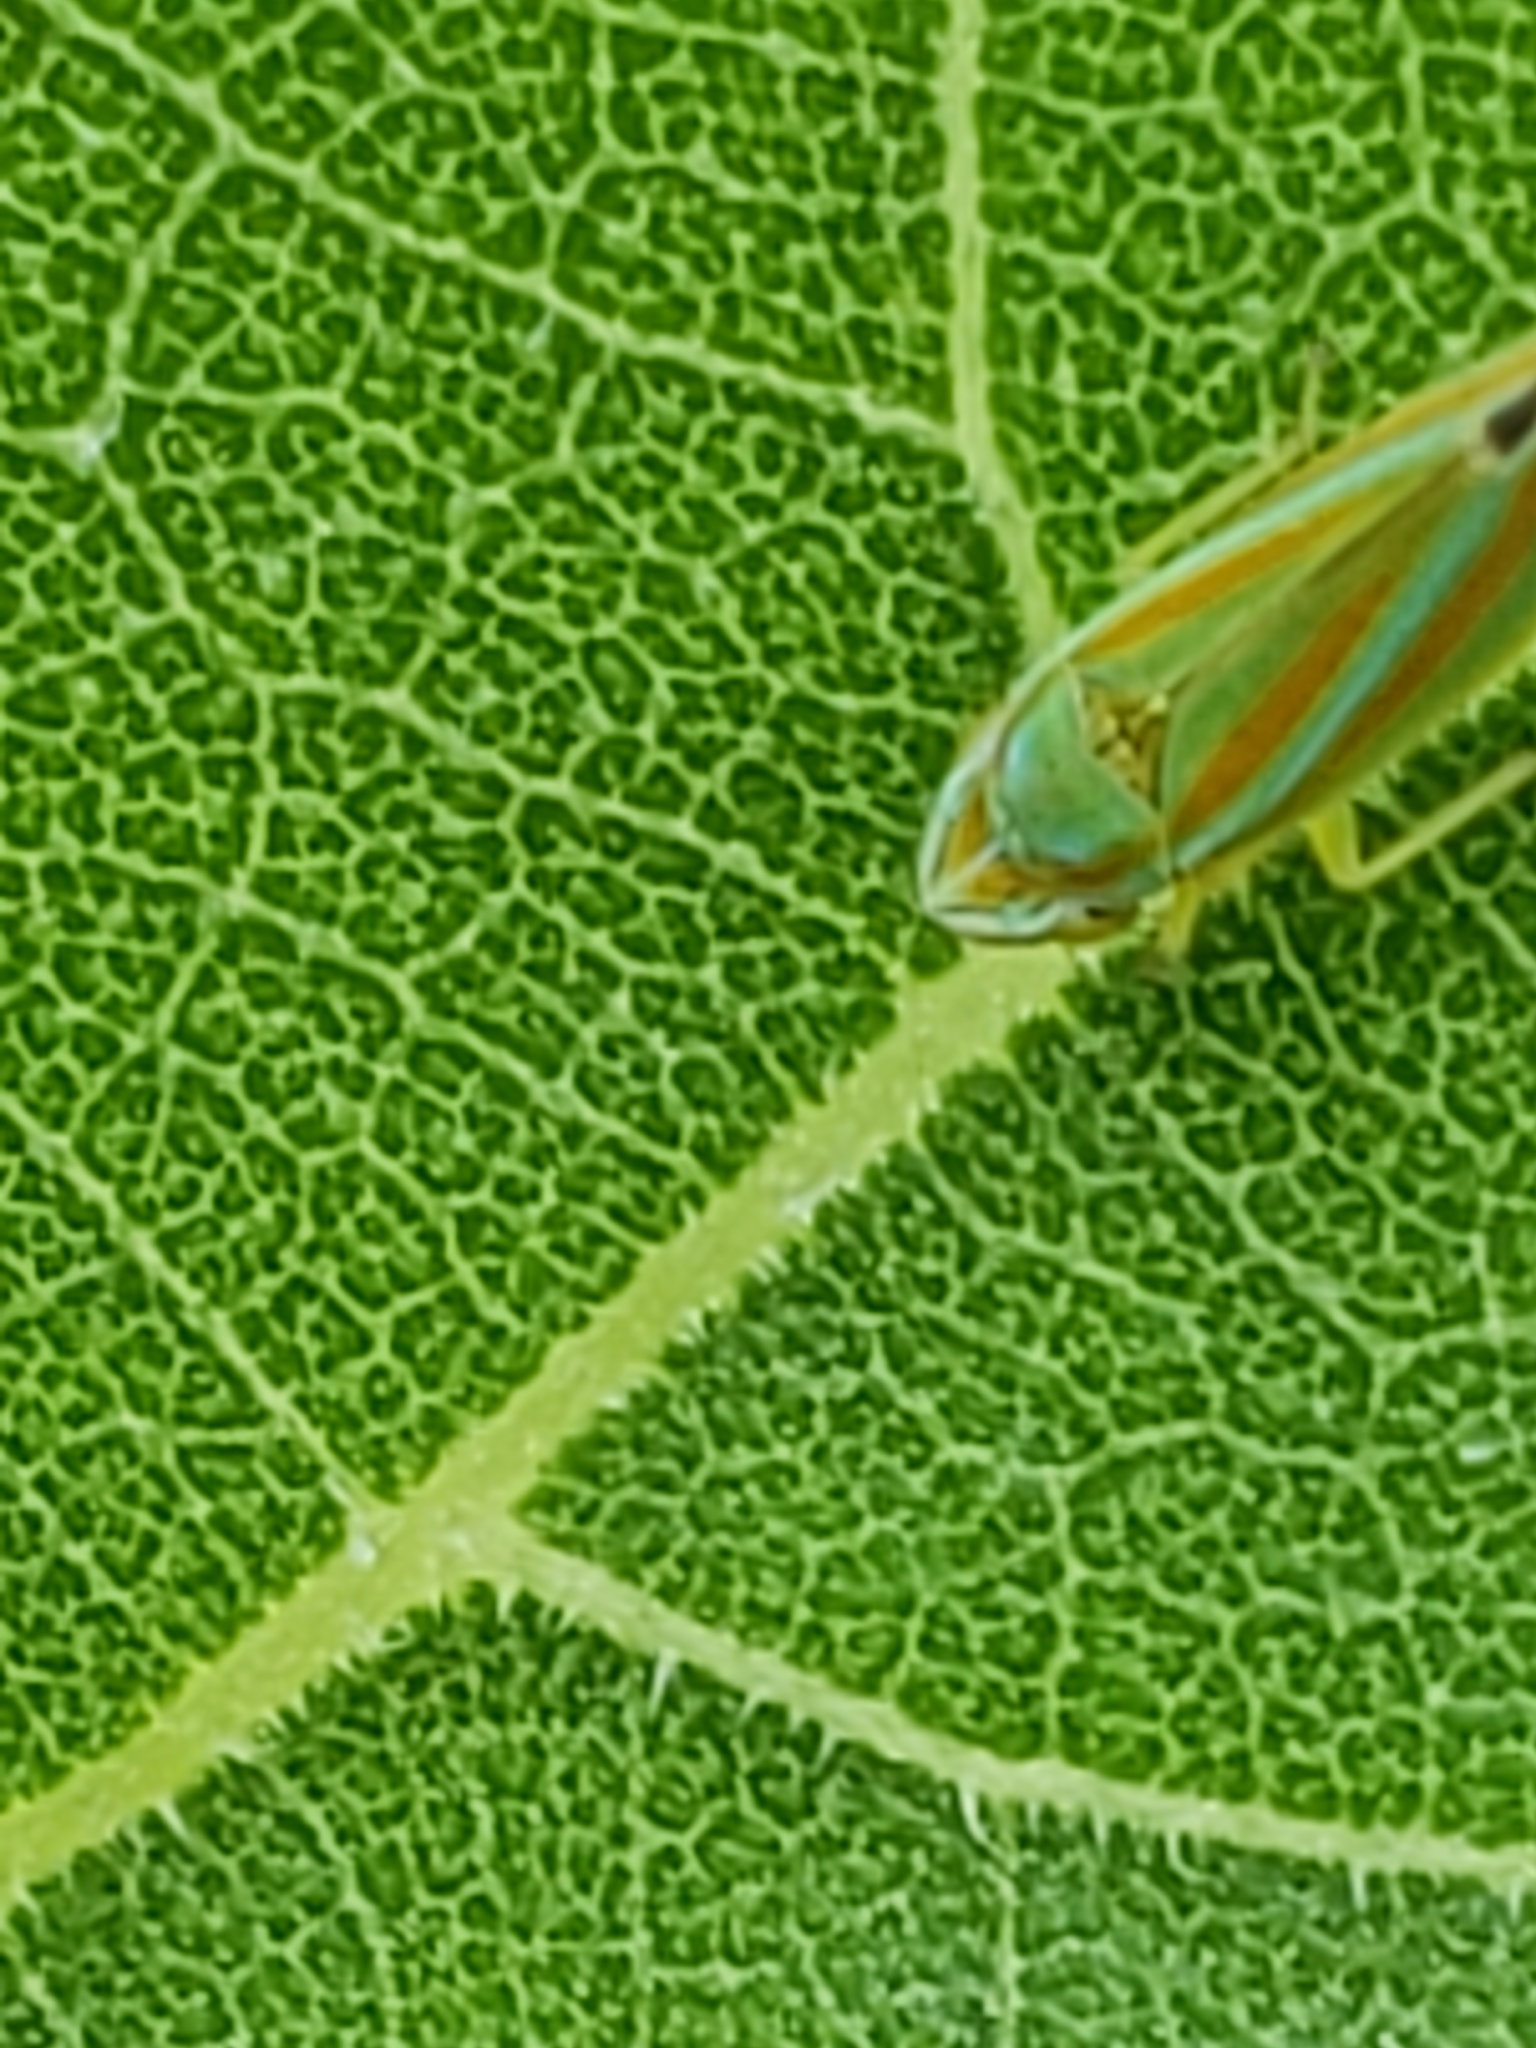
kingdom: Animalia
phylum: Arthropoda
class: Insecta
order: Hemiptera
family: Cicadellidae
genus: Graphocephala
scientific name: Graphocephala versuta
